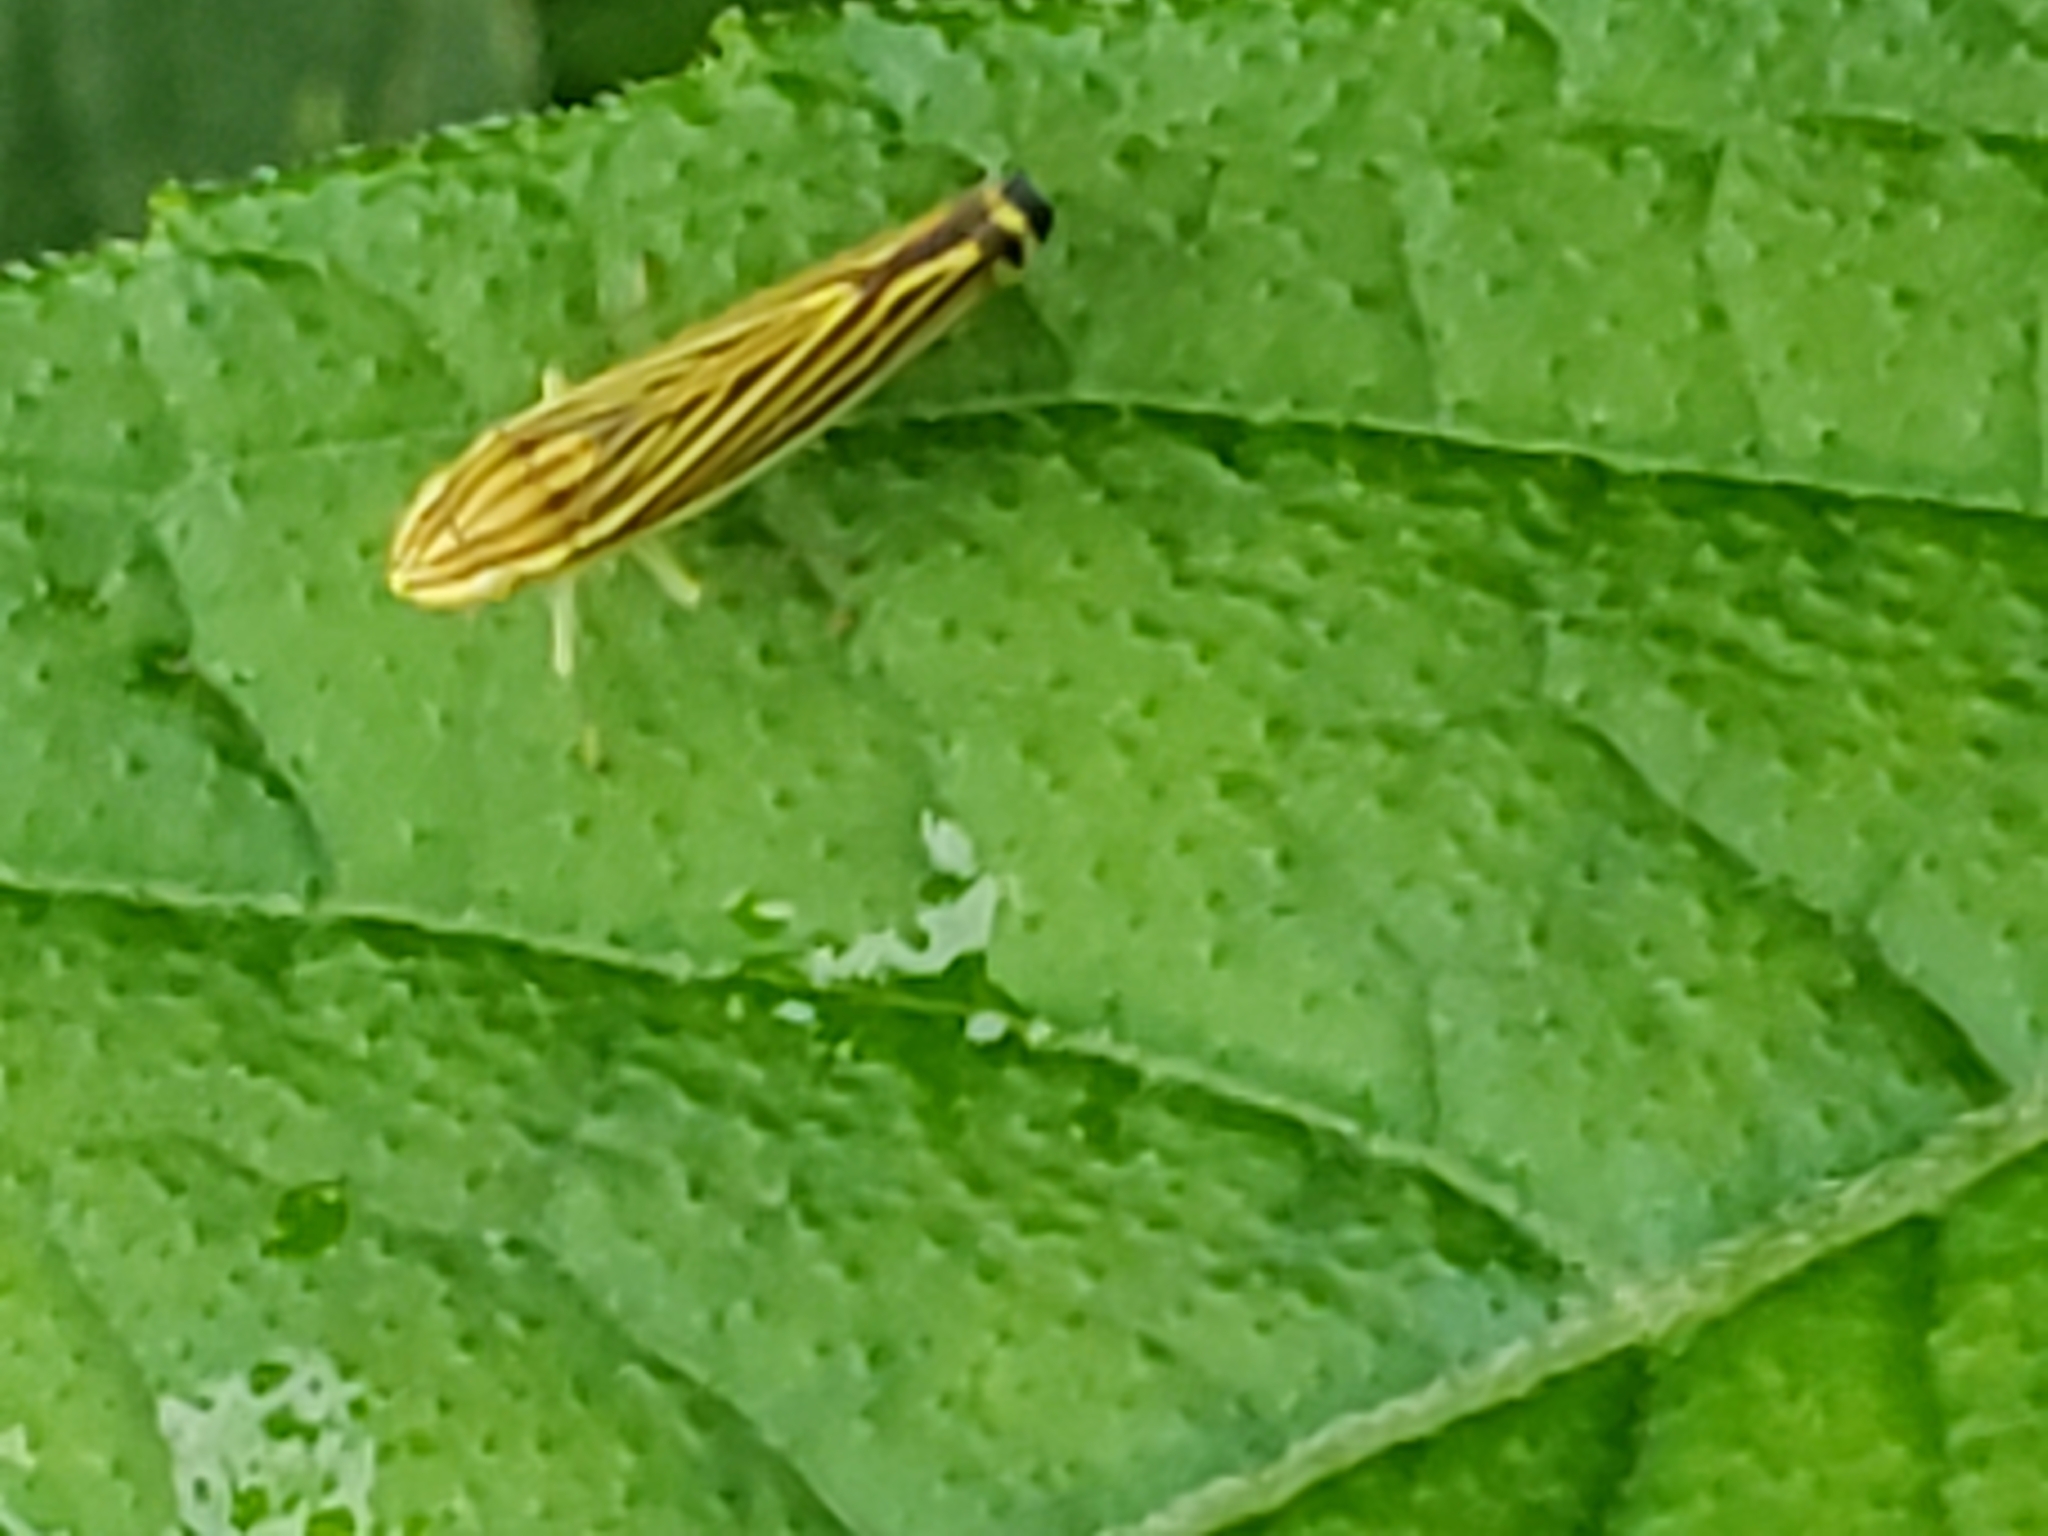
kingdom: Animalia
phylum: Arthropoda
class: Insecta
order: Hemiptera
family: Cicadellidae
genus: Sibovia
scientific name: Sibovia occatoria
